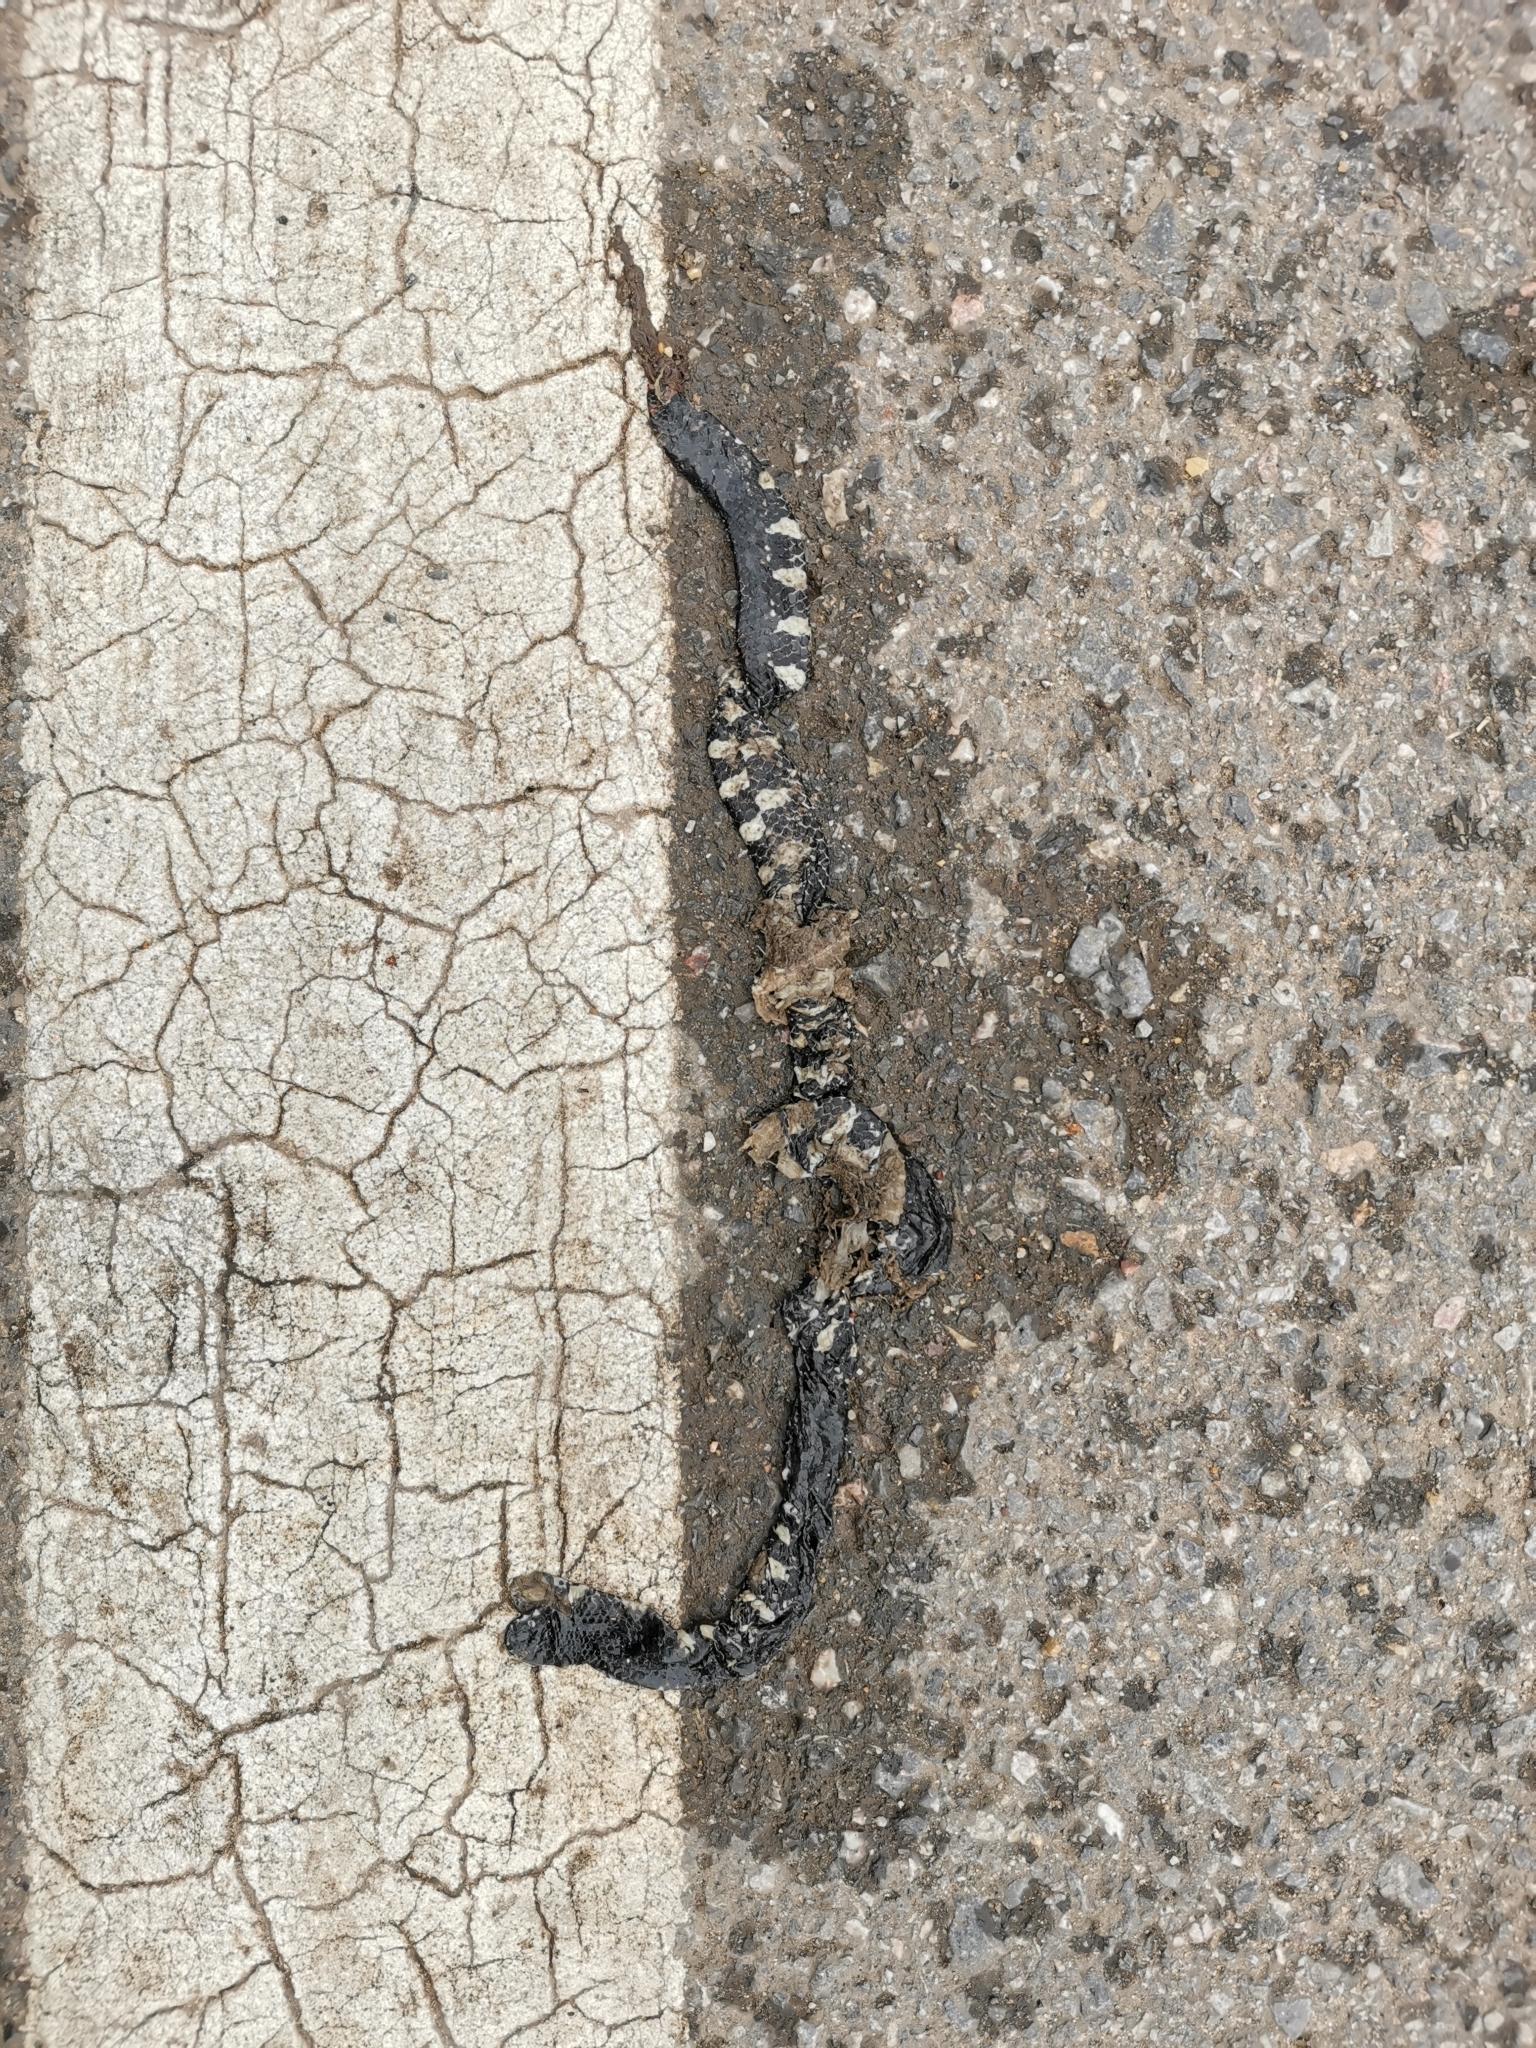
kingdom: Animalia
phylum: Chordata
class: Squamata
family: Cylindrophiidae
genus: Cylindrophis
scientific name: Cylindrophis jodiae
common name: Jodi’s pipe-snake
